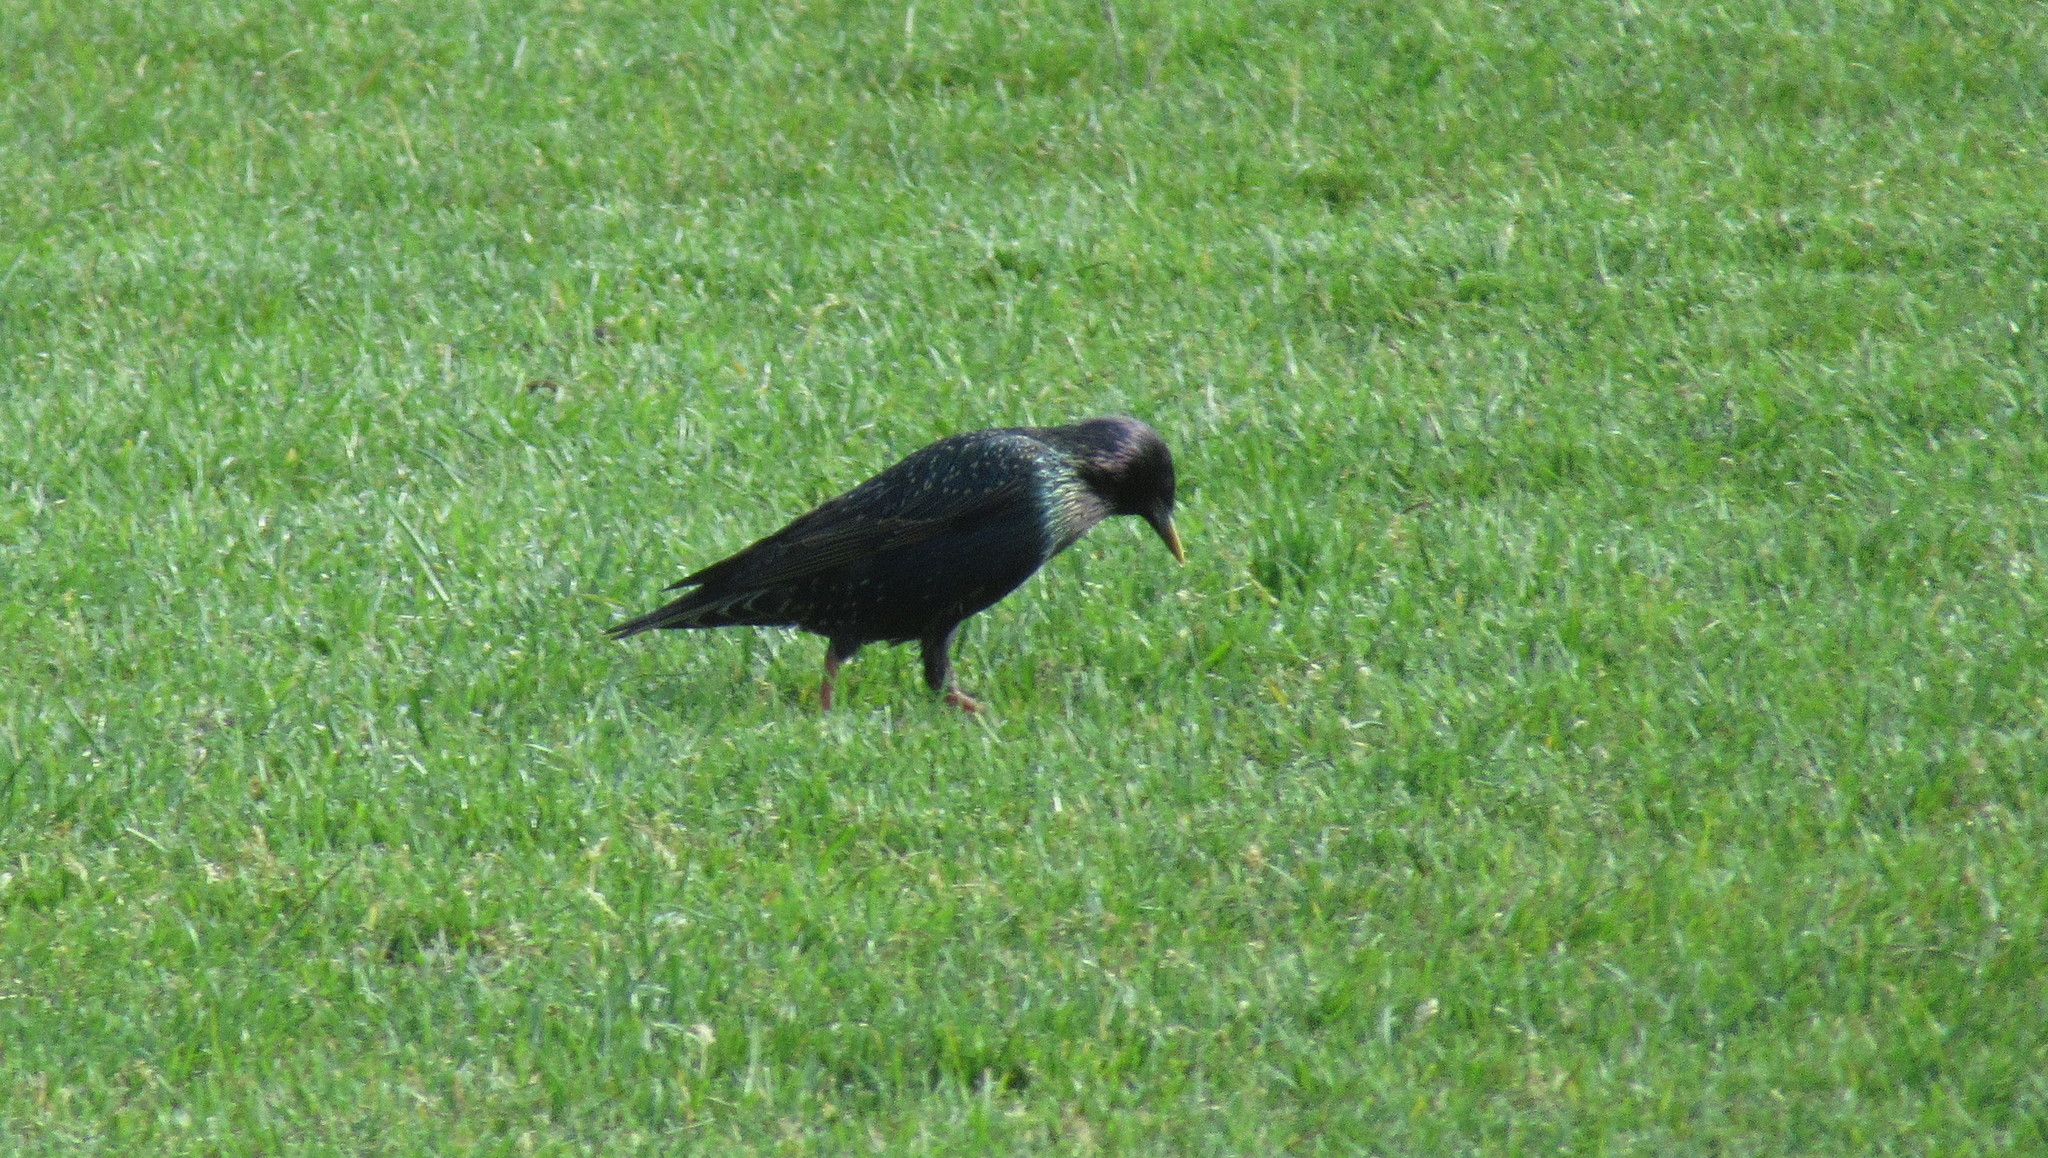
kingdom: Animalia
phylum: Chordata
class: Aves
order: Passeriformes
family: Sturnidae
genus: Sturnus
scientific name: Sturnus vulgaris
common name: Common starling
